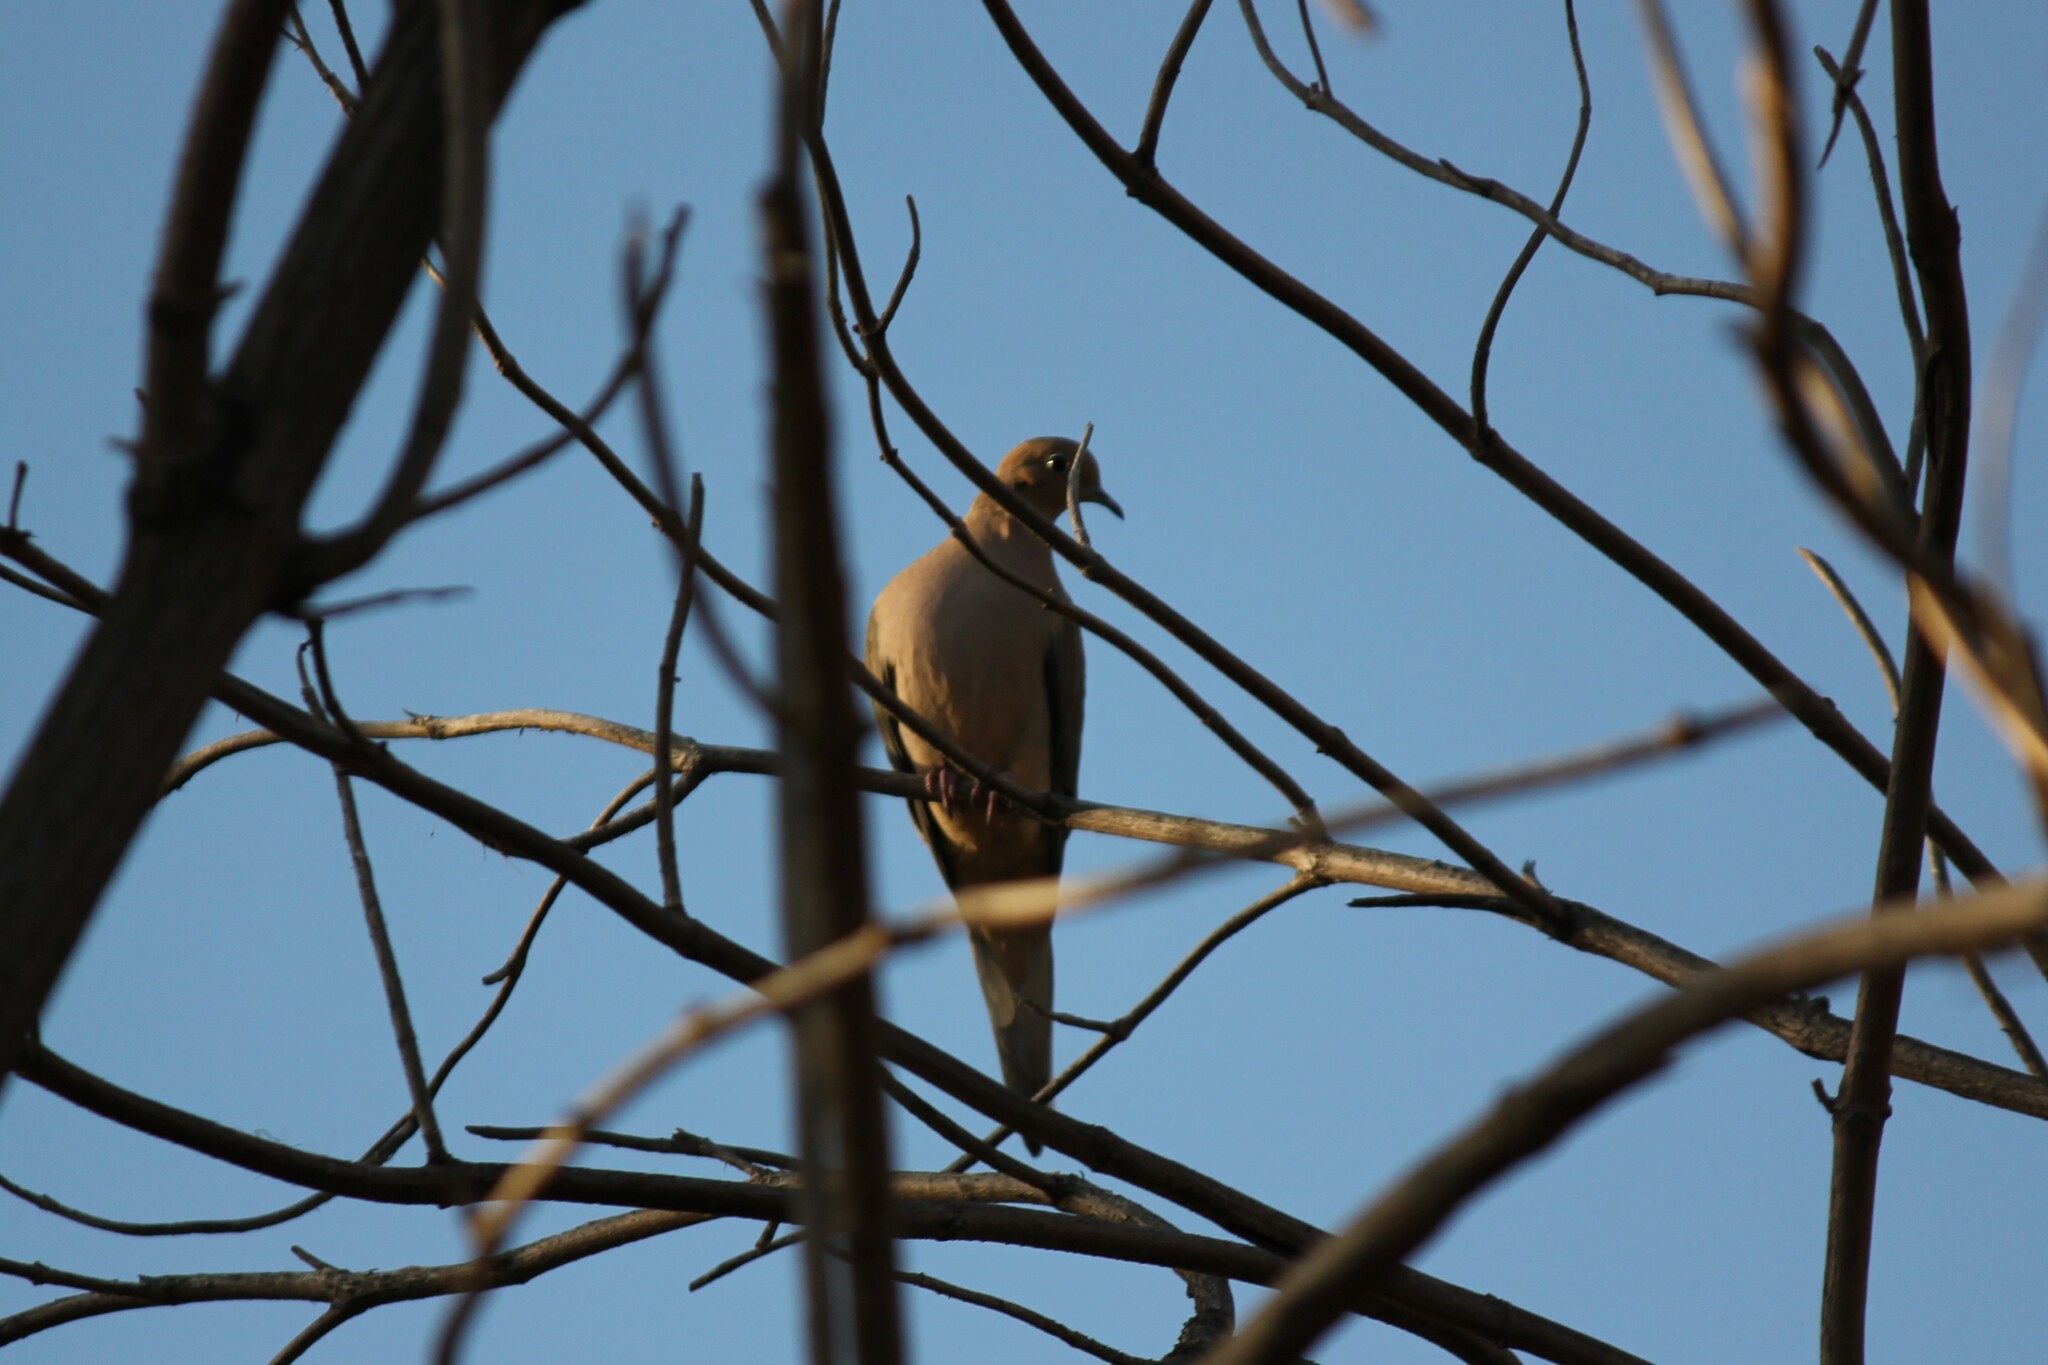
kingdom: Animalia
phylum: Chordata
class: Aves
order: Columbiformes
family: Columbidae
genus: Zenaida
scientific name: Zenaida macroura
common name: Mourning dove
